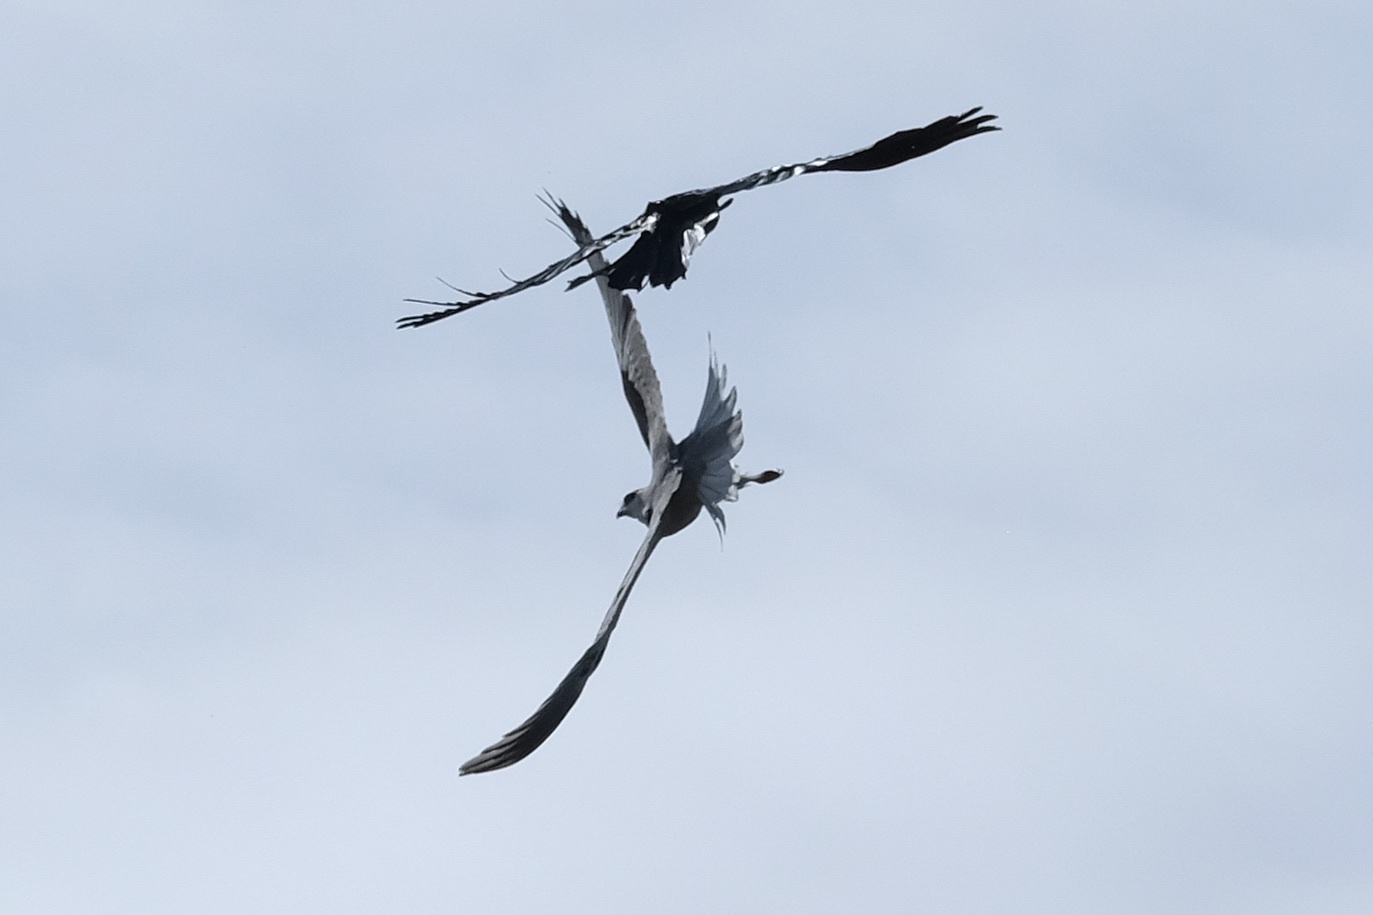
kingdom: Animalia
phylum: Chordata
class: Aves
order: Accipitriformes
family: Accipitridae
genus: Elanus
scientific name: Elanus leucurus
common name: White-tailed kite
